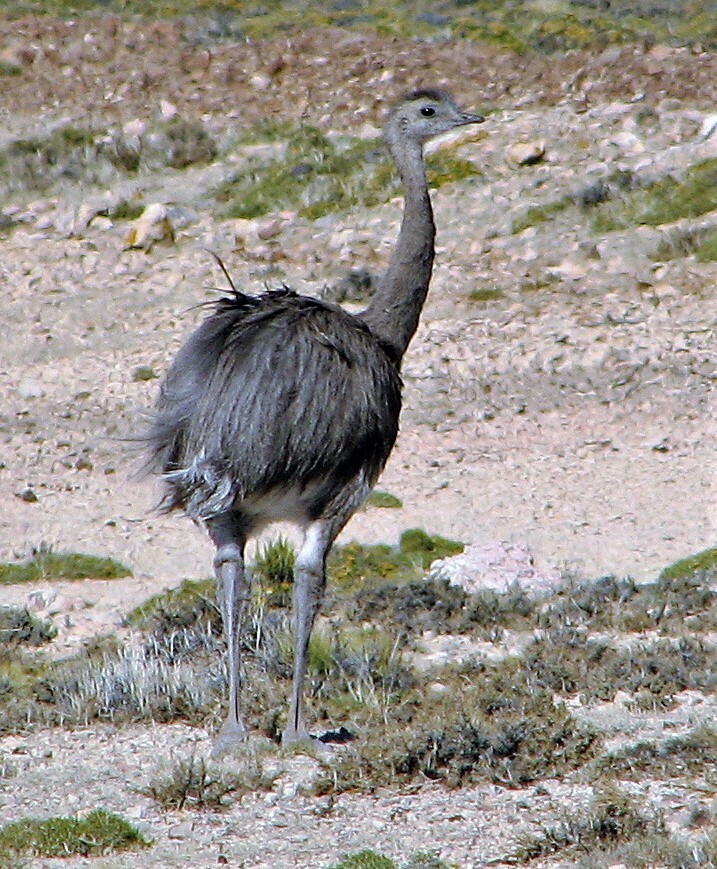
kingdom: Animalia
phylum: Chordata
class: Aves
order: Rheiformes
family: Rheidae
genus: Rhea
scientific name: Rhea pennata
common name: Lesser rhea
